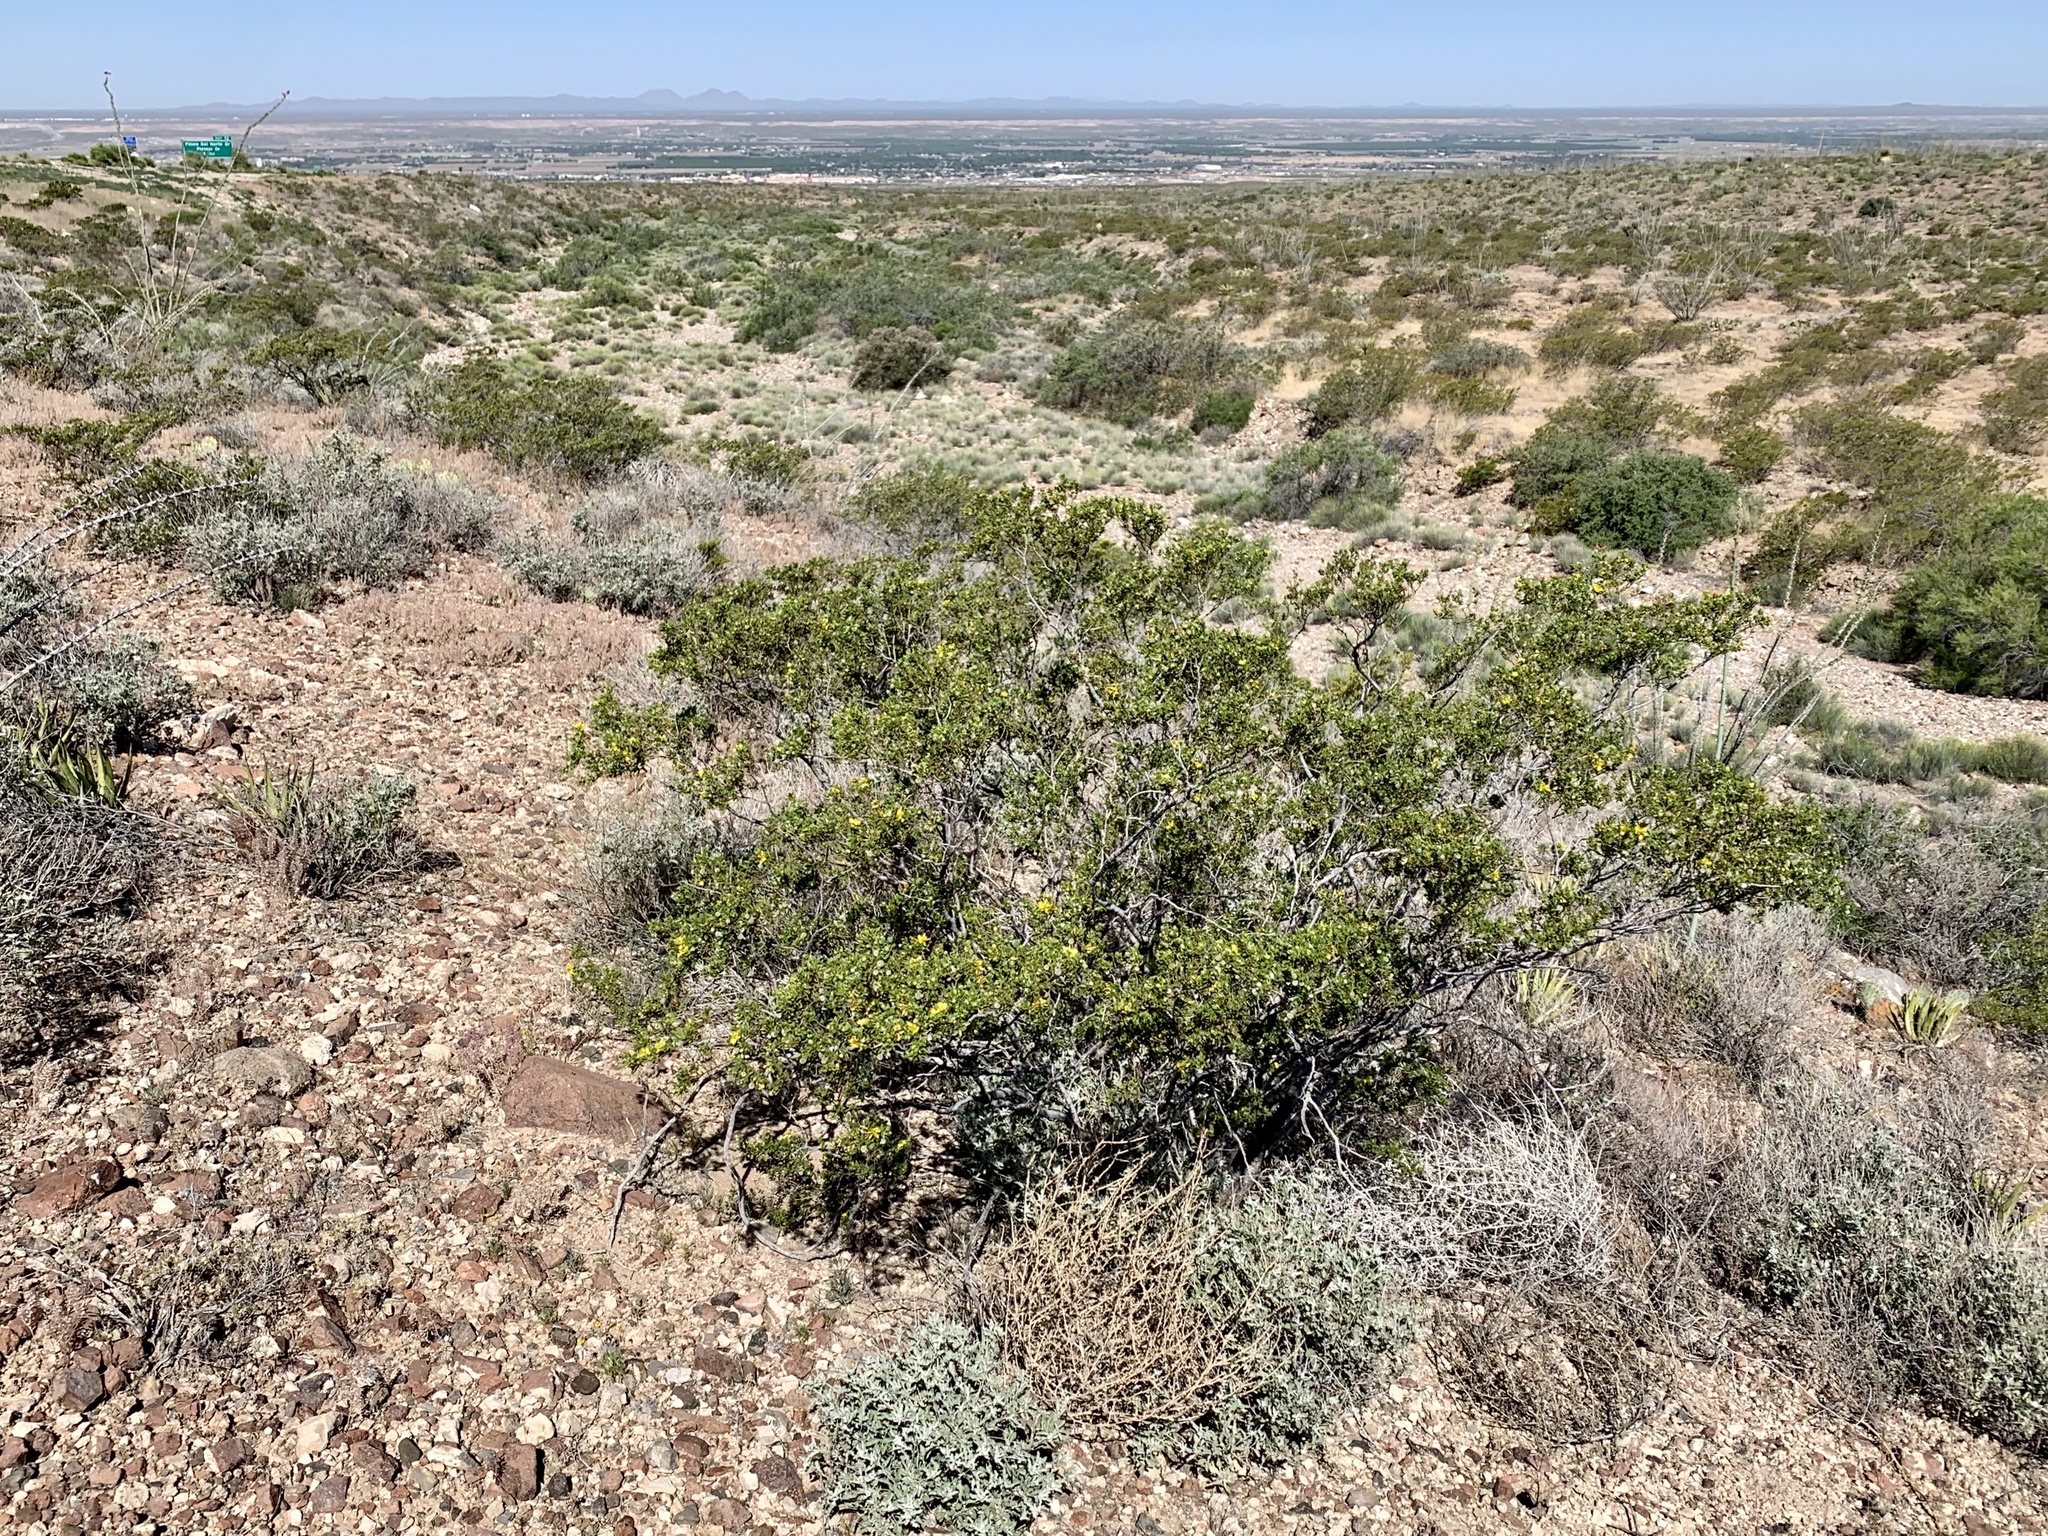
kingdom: Plantae
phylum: Tracheophyta
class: Magnoliopsida
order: Zygophyllales
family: Zygophyllaceae
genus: Larrea
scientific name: Larrea tridentata
